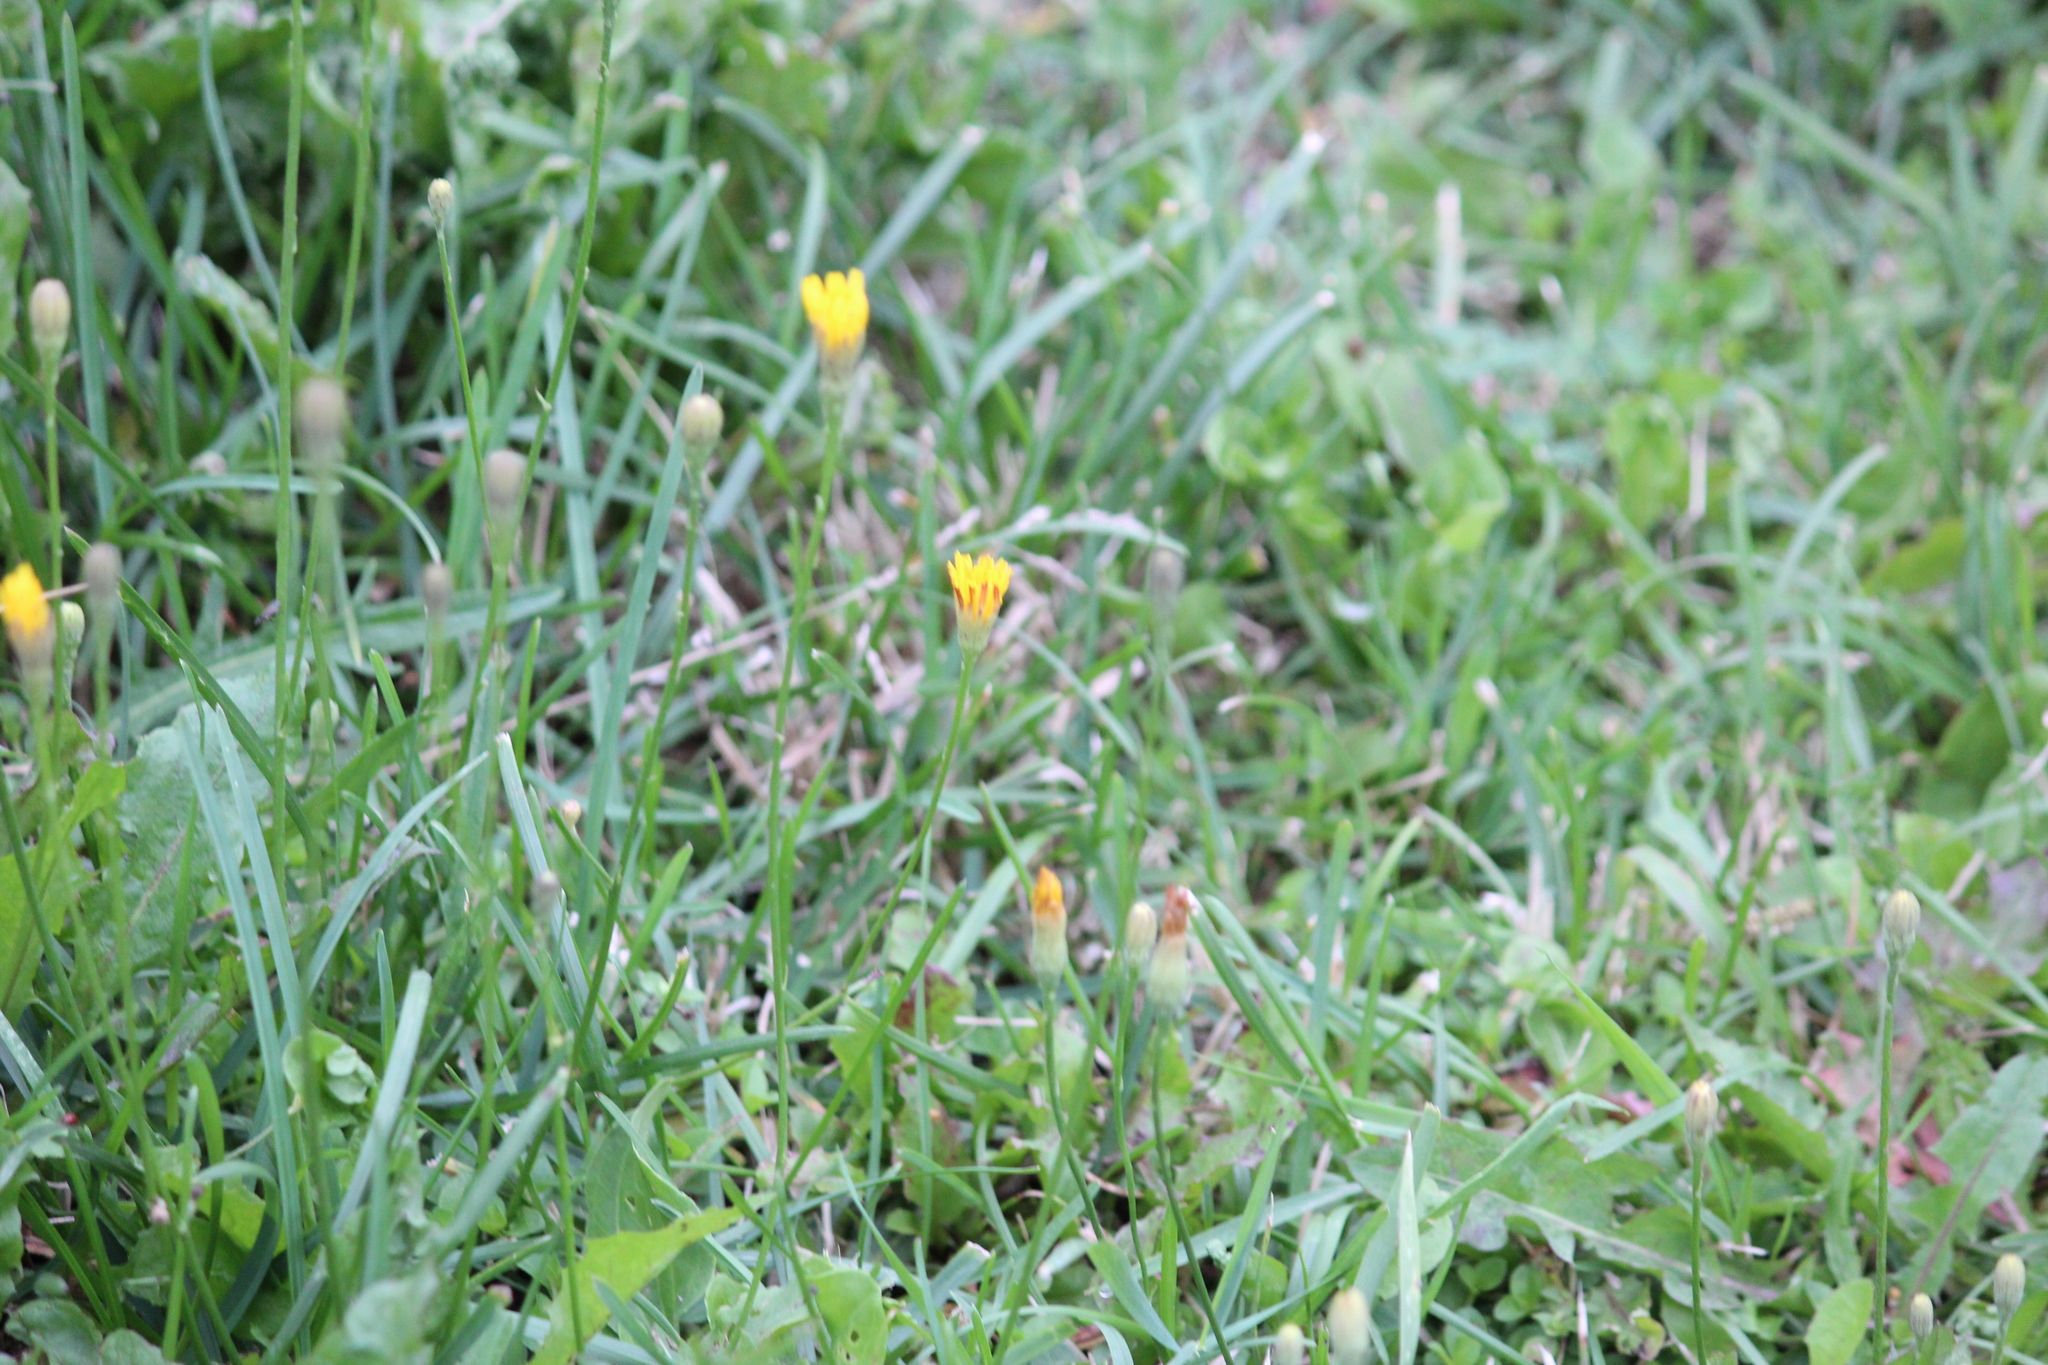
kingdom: Plantae
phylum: Tracheophyta
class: Magnoliopsida
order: Asterales
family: Asteraceae
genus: Scorzoneroides
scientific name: Scorzoneroides autumnalis
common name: Autumn hawkbit
